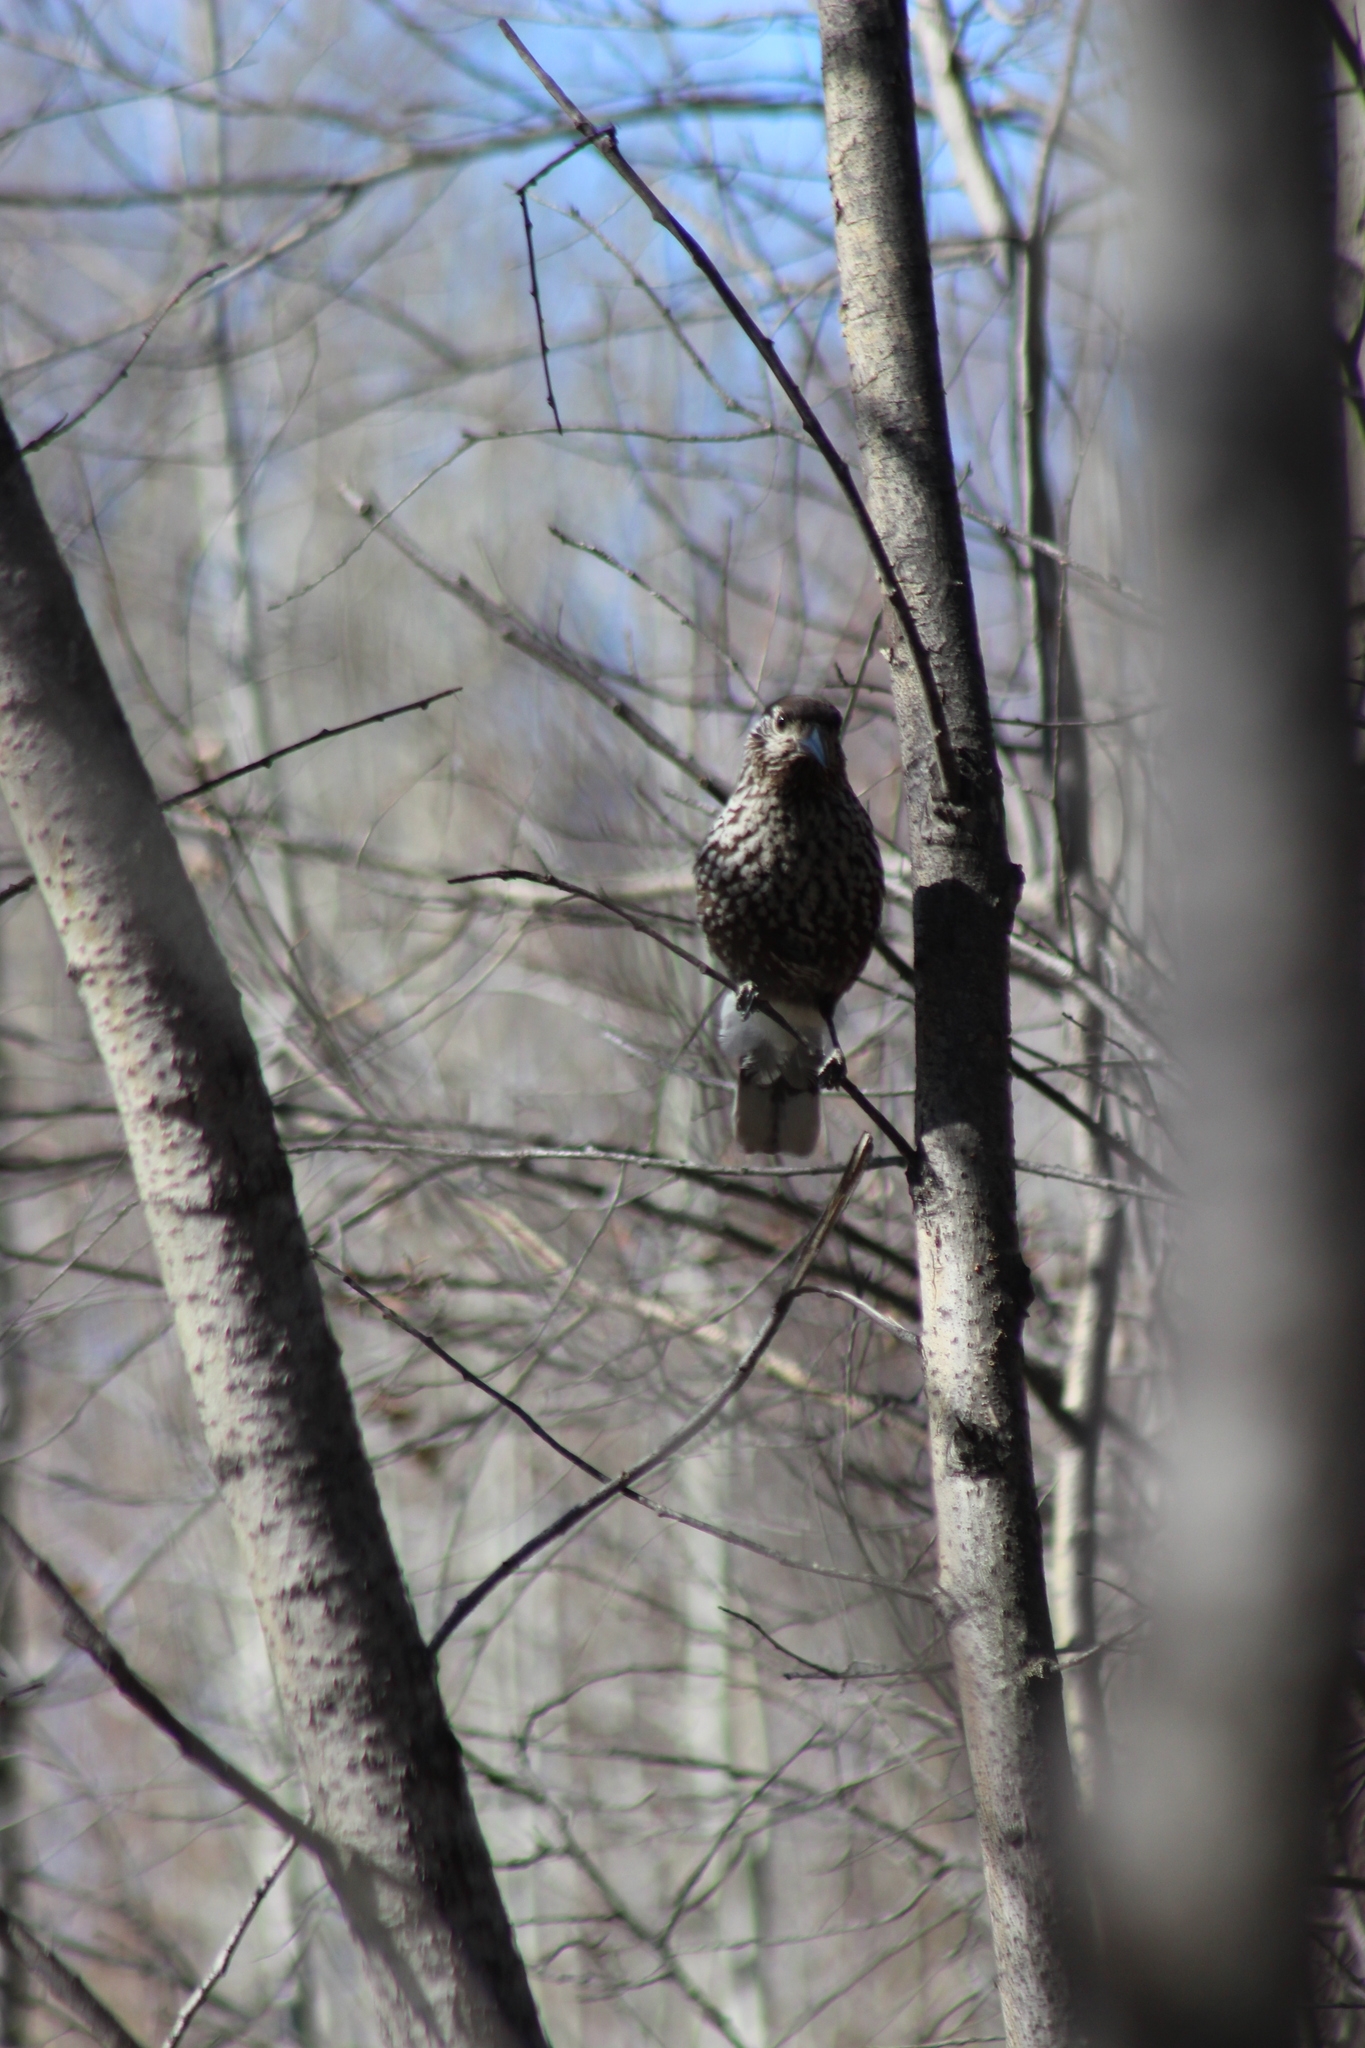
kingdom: Animalia
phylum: Chordata
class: Aves
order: Passeriformes
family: Corvidae
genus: Nucifraga
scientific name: Nucifraga caryocatactes
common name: Spotted nutcracker
